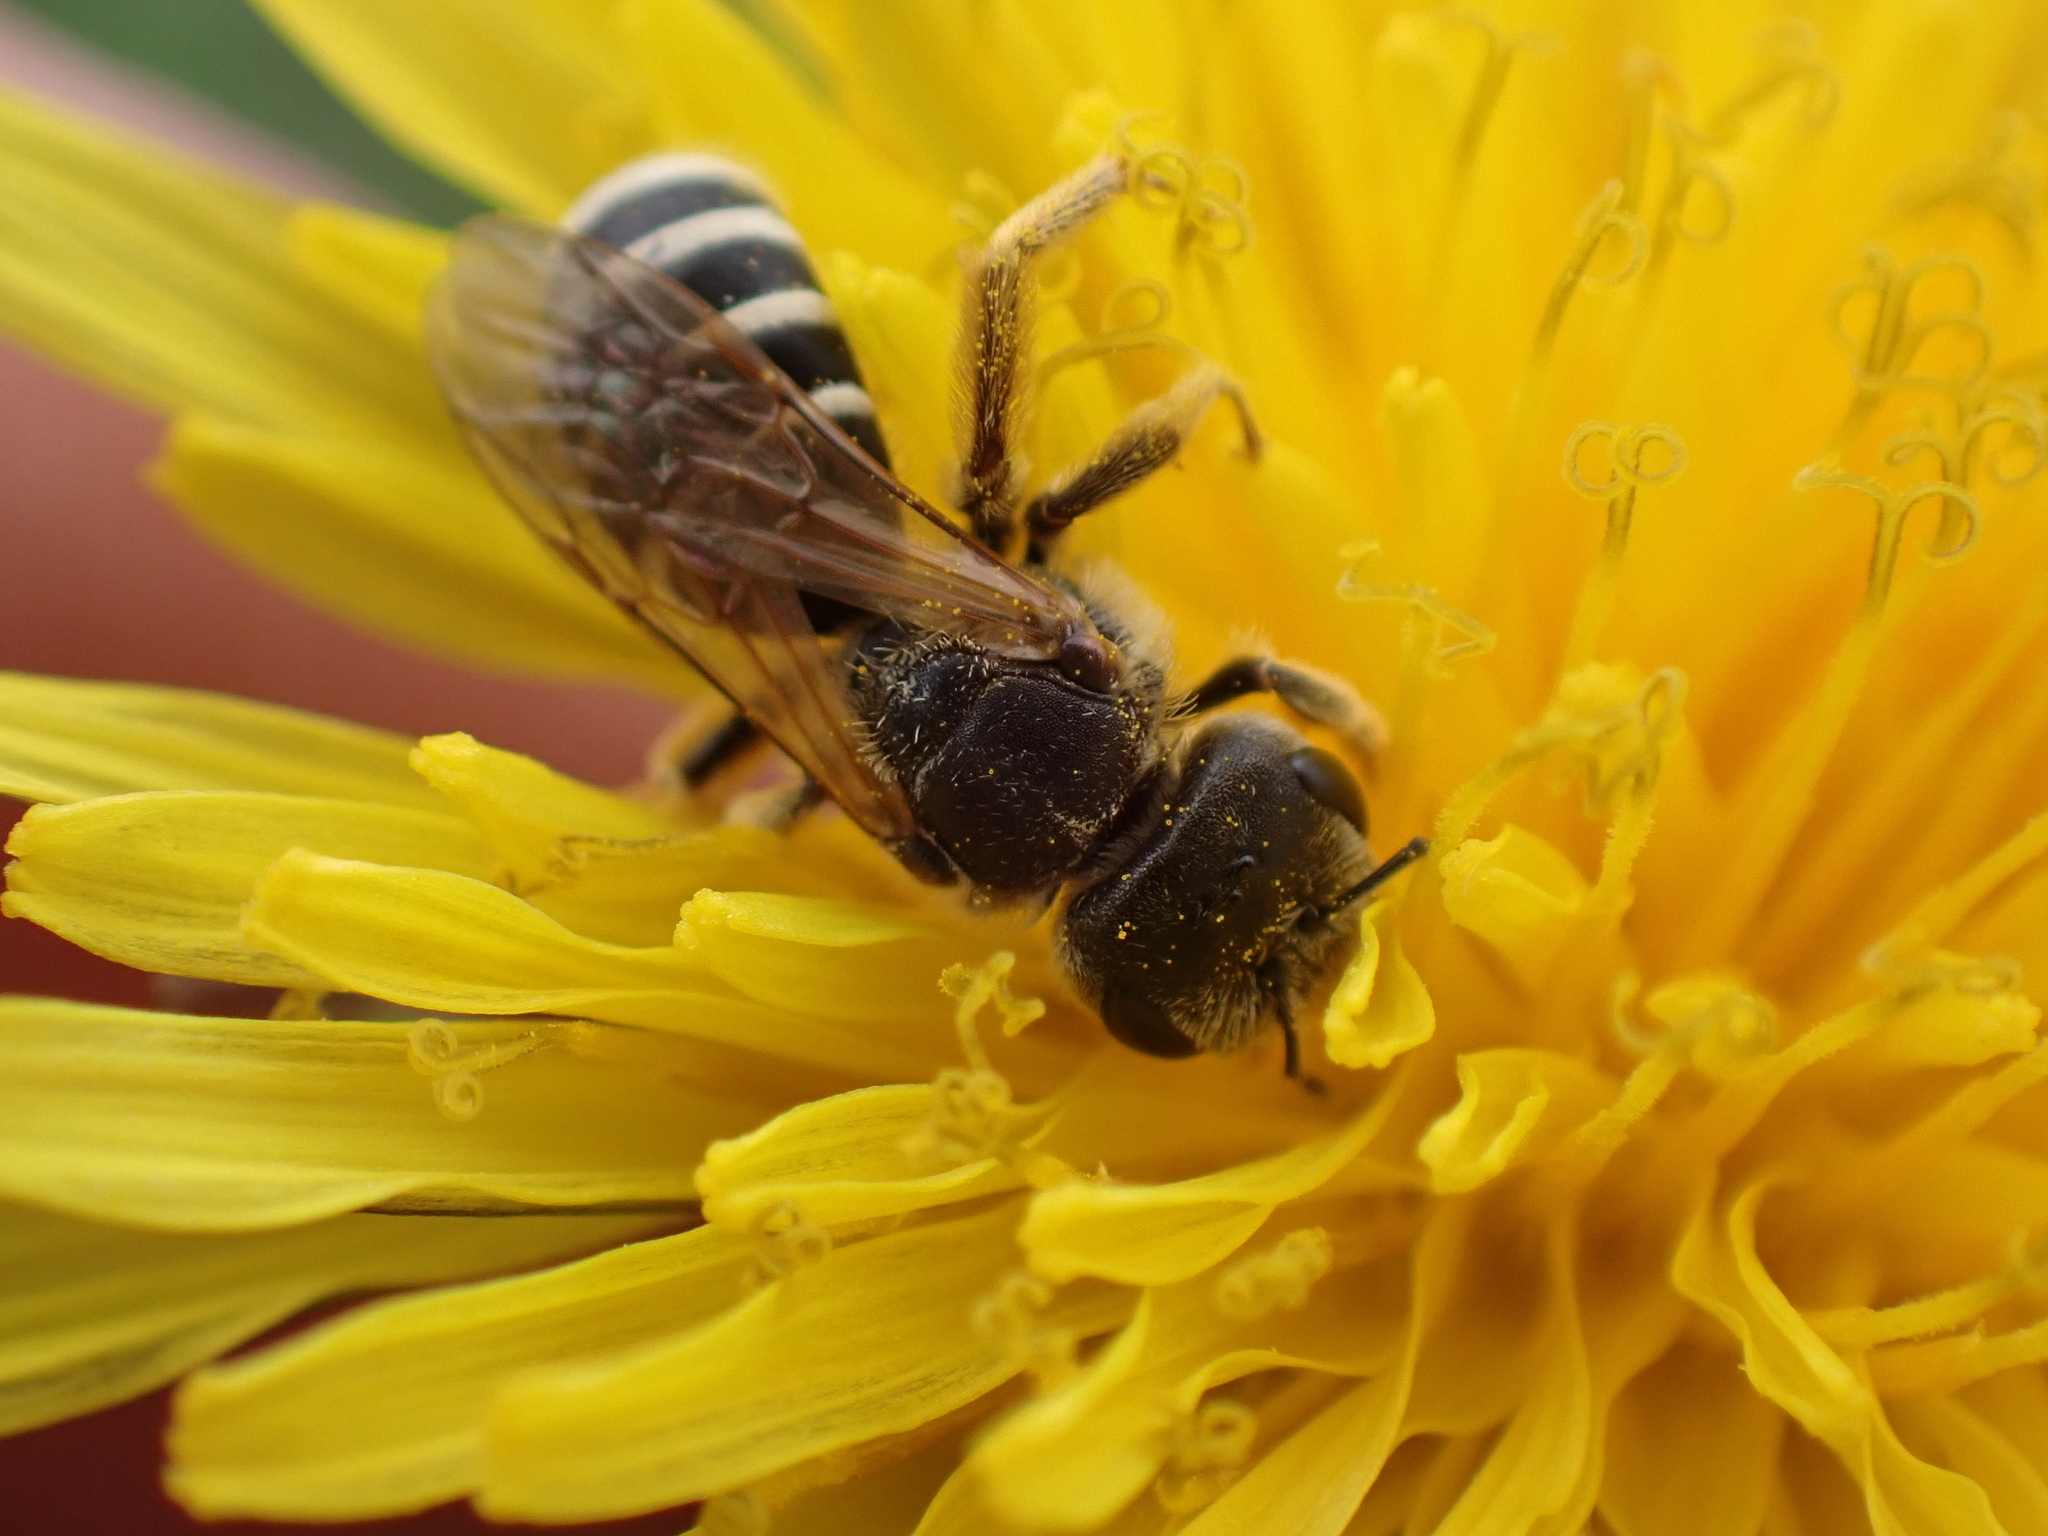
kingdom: Animalia
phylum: Arthropoda
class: Insecta
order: Hymenoptera
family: Halictidae
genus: Halictus
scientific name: Halictus ligatus
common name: Ligated furrow bee
